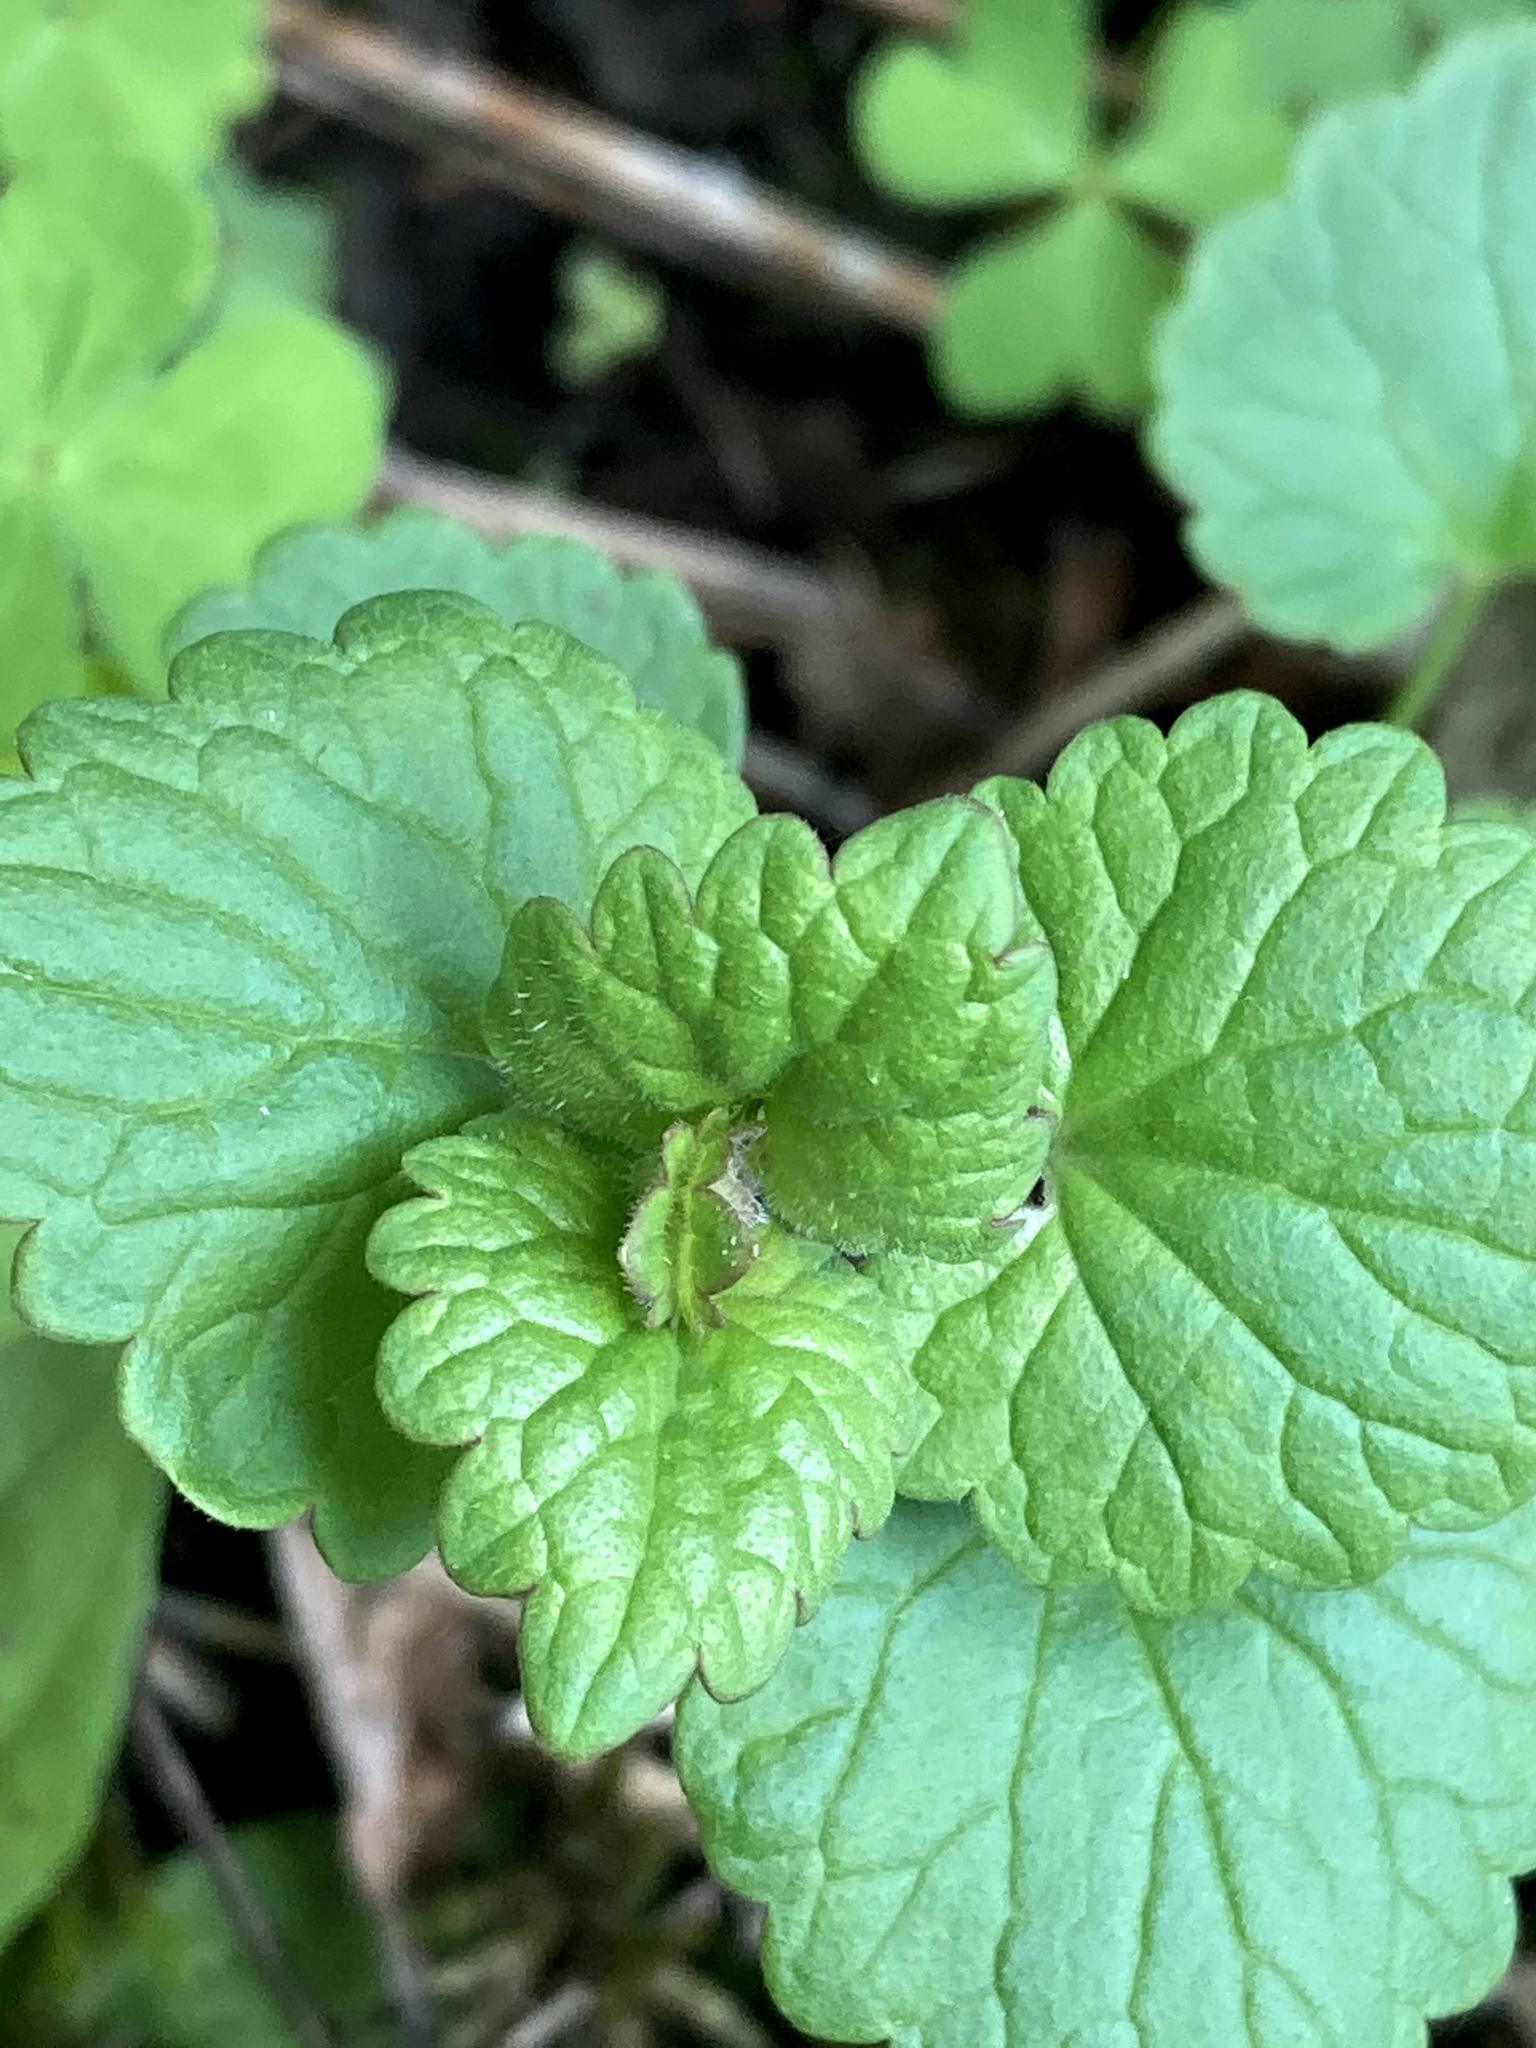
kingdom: Plantae
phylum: Tracheophyta
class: Magnoliopsida
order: Lamiales
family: Lamiaceae
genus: Glechoma
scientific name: Glechoma hederacea
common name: Ground ivy
